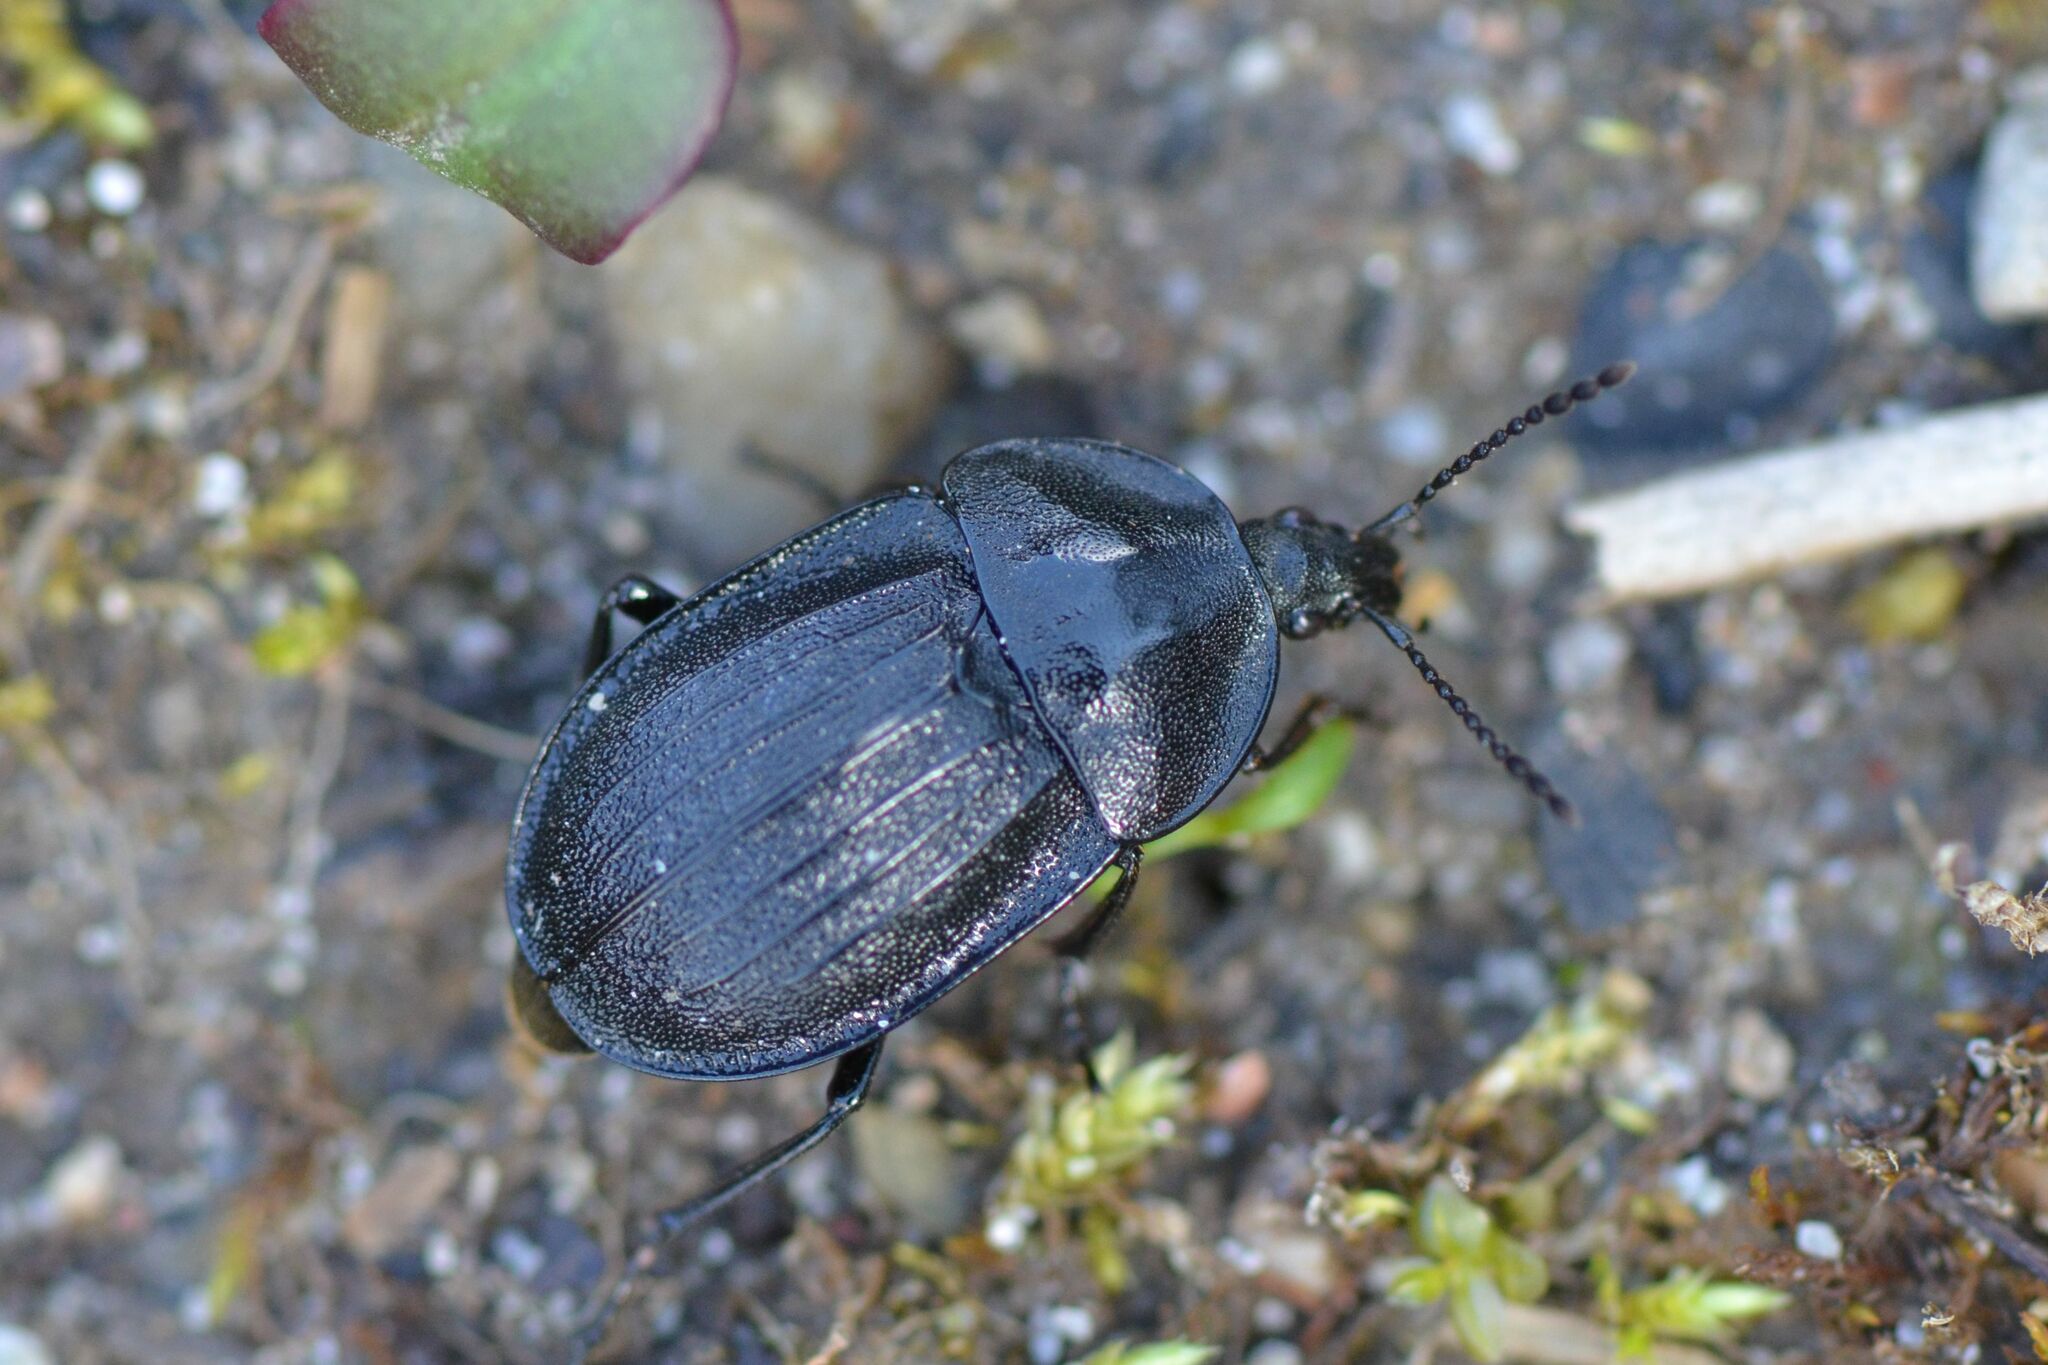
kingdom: Animalia
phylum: Arthropoda
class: Insecta
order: Coleoptera
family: Staphylinidae
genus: Silpha
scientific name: Silpha atrata
